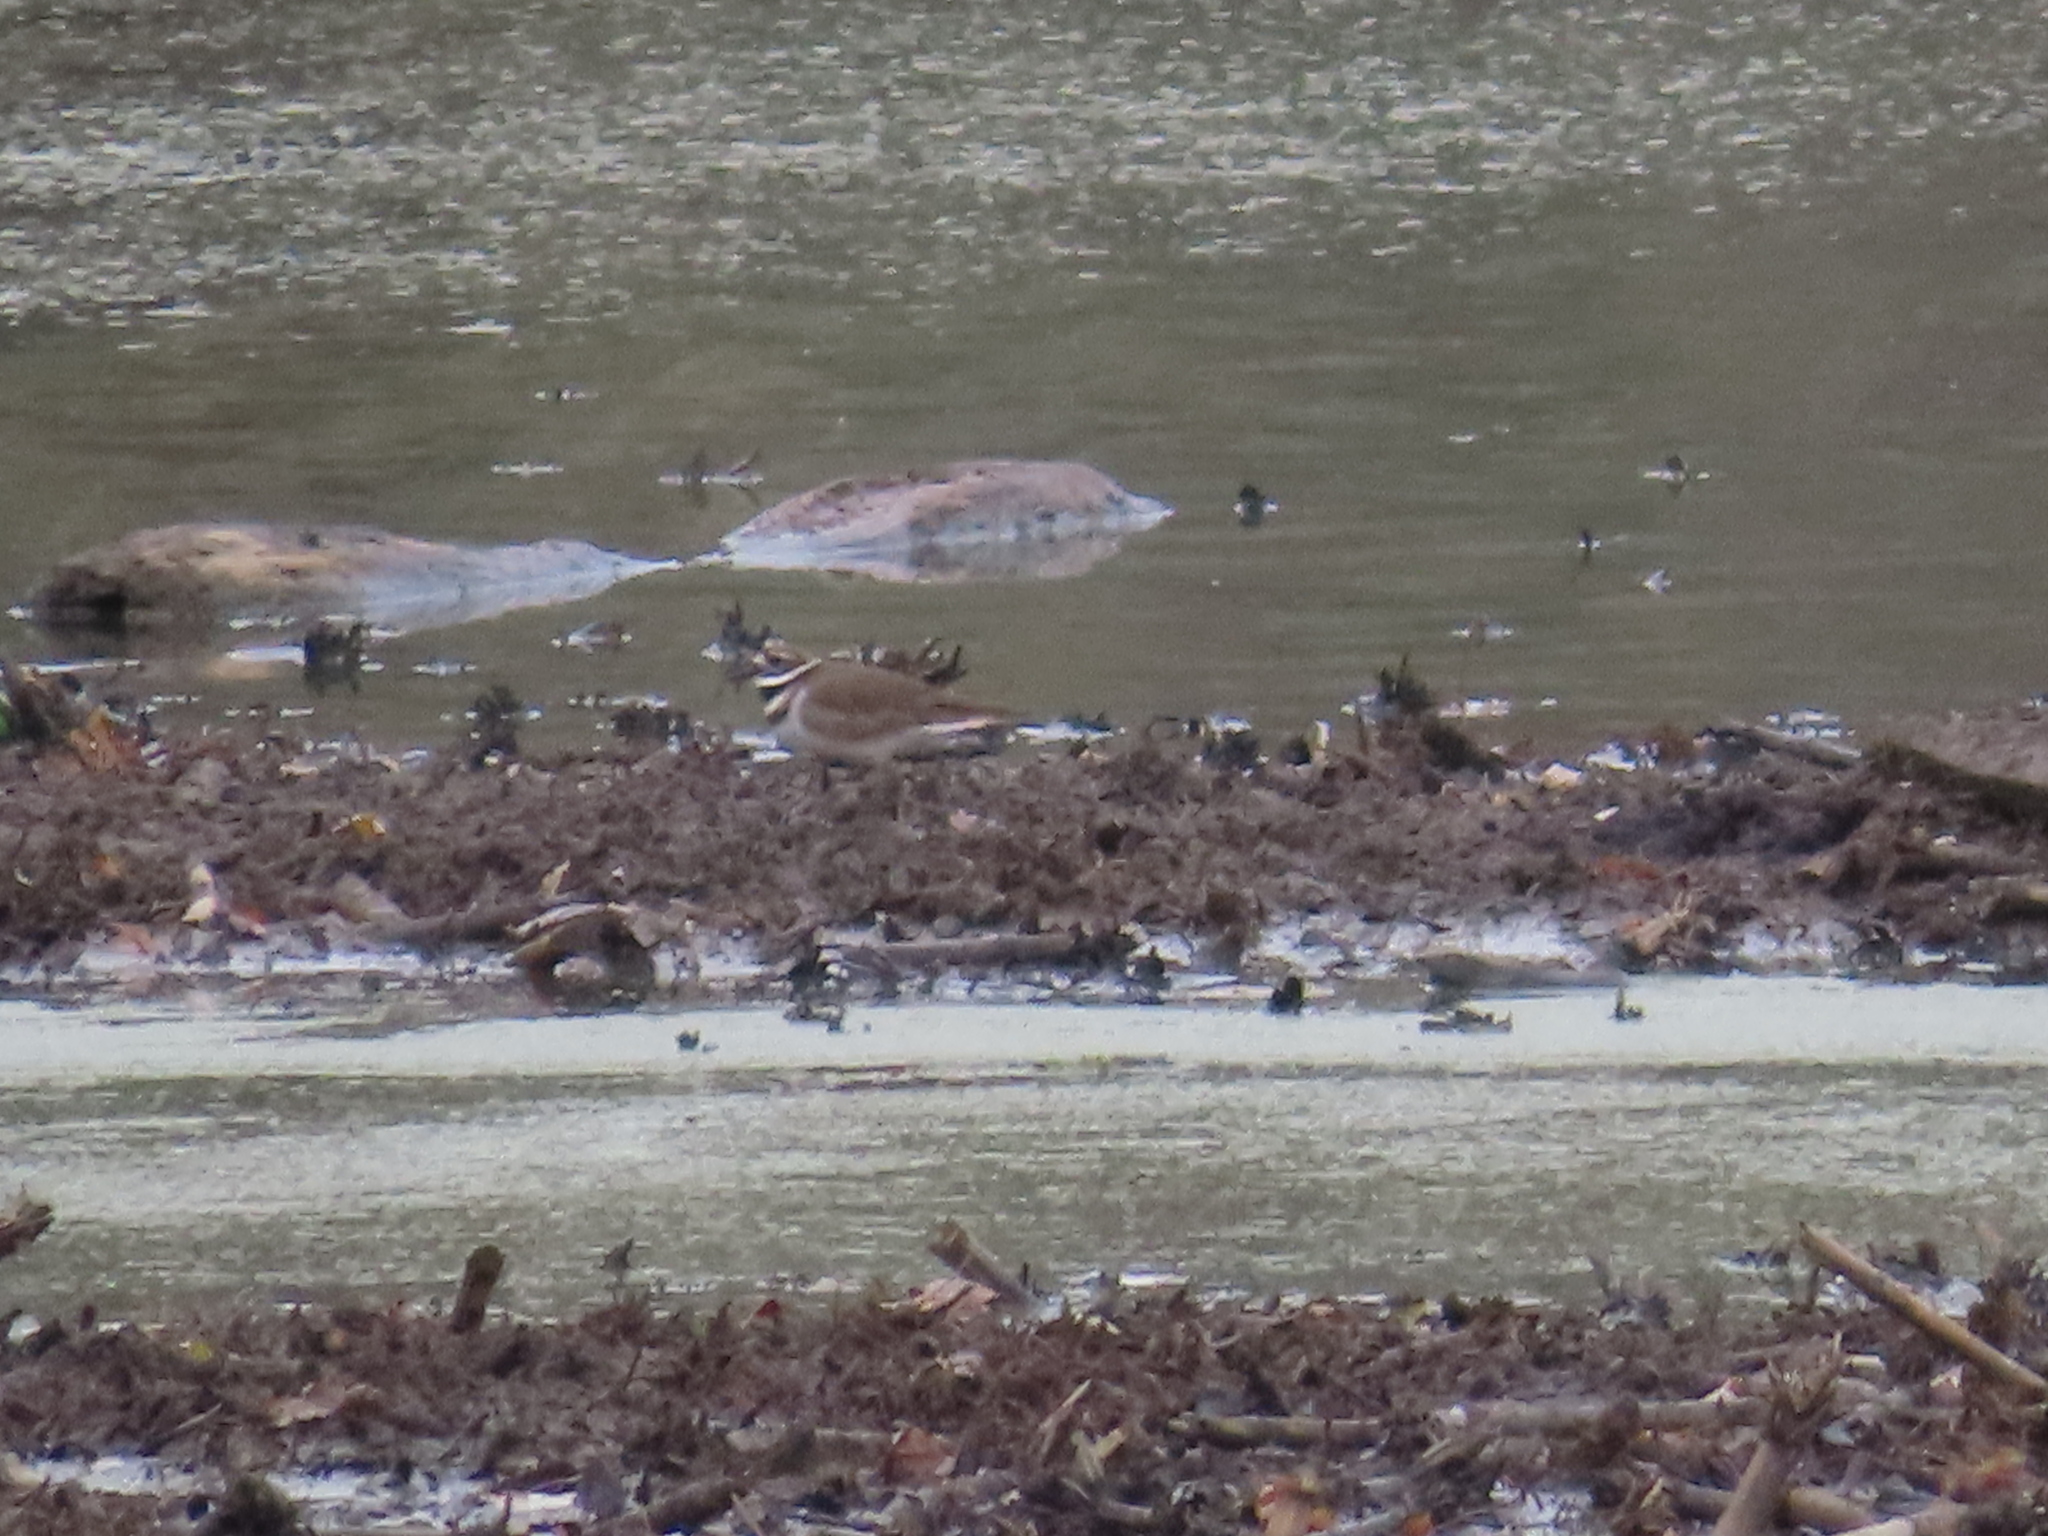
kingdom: Animalia
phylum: Chordata
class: Aves
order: Charadriiformes
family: Charadriidae
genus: Charadrius
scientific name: Charadrius vociferus
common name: Killdeer
